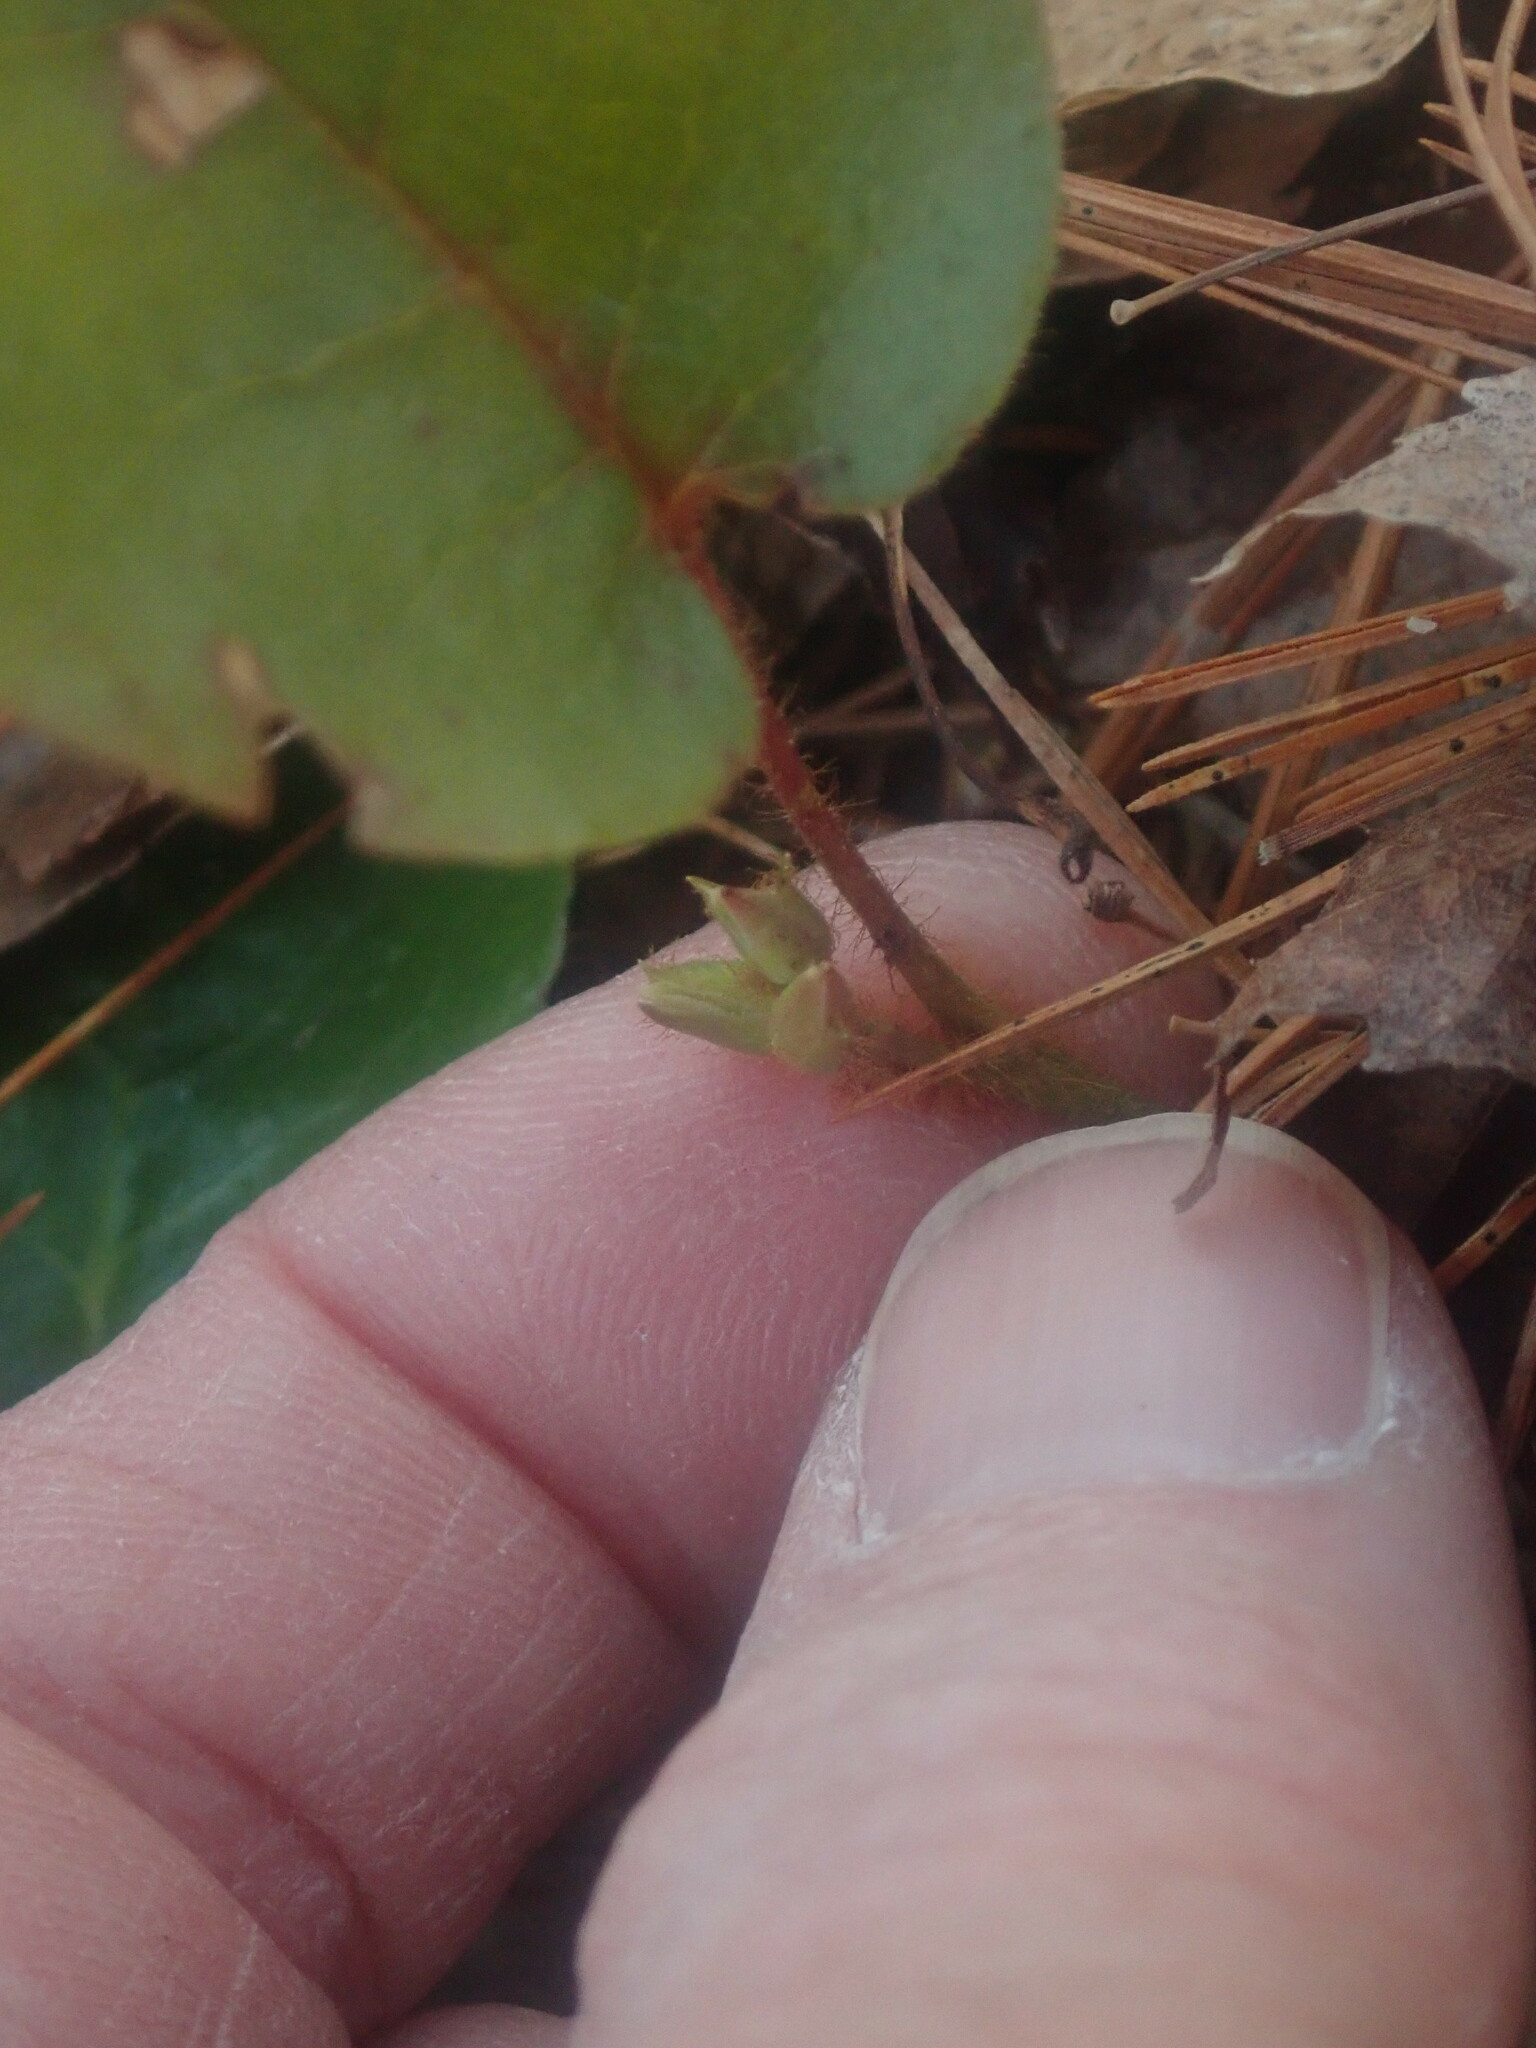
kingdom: Plantae
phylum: Tracheophyta
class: Magnoliopsida
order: Ericales
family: Ericaceae
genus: Epigaea
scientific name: Epigaea repens
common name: Gravelroot
